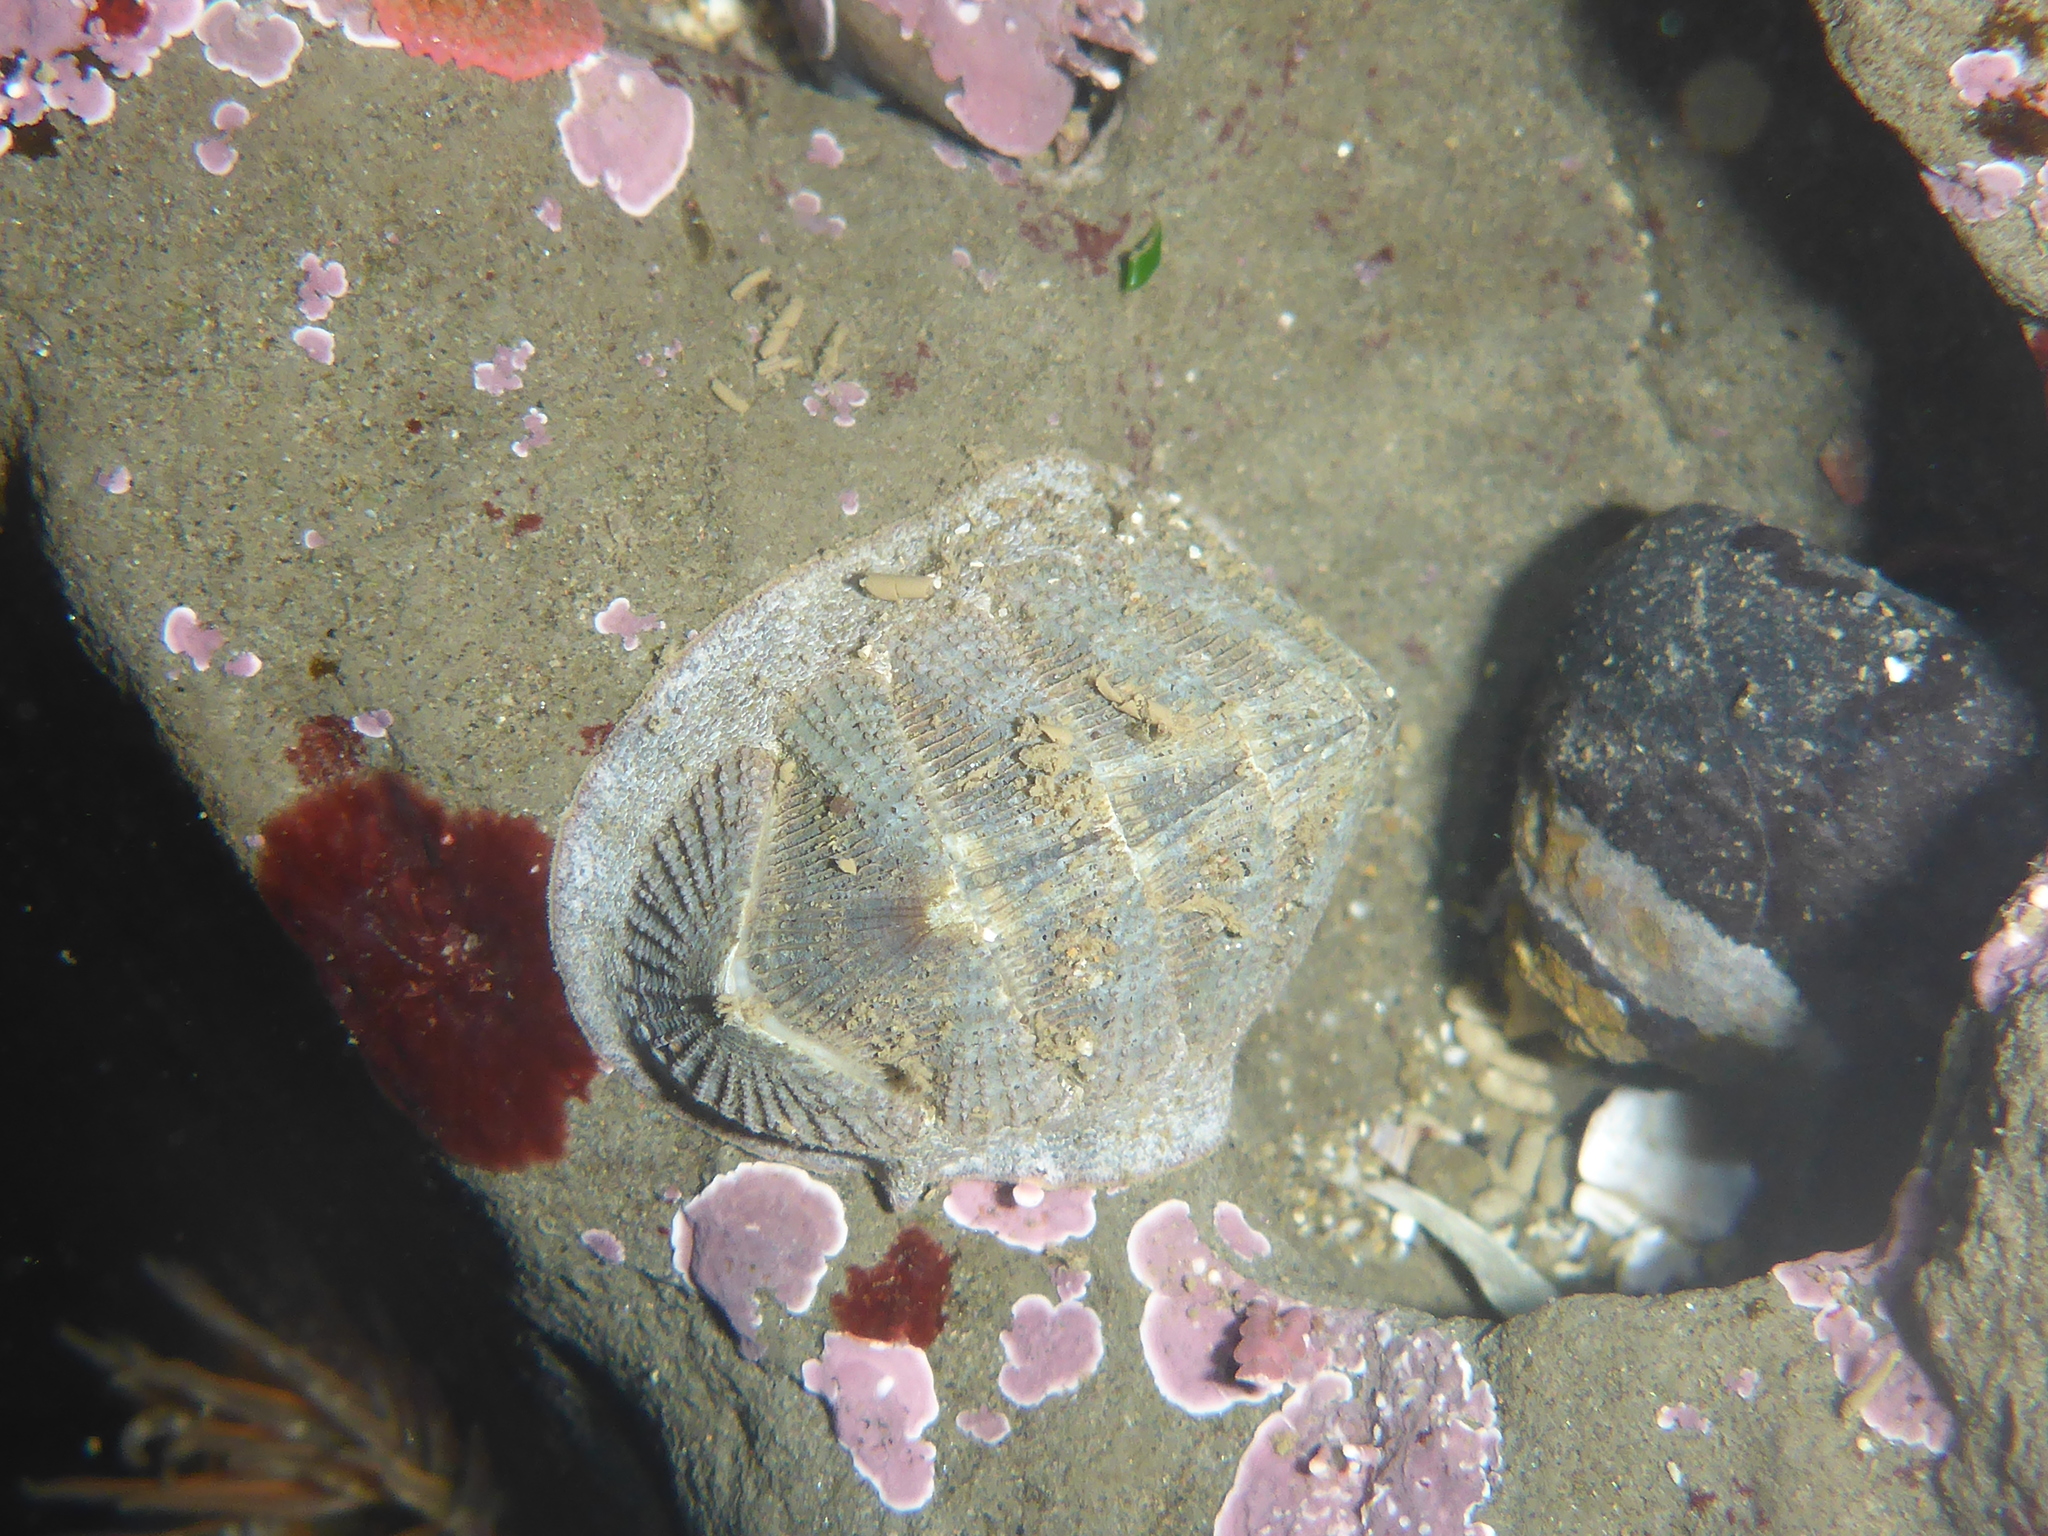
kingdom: Animalia
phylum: Mollusca
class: Polyplacophora
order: Chitonida
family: Ischnochitonidae
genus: Lepidozona
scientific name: Lepidozona cooperi
